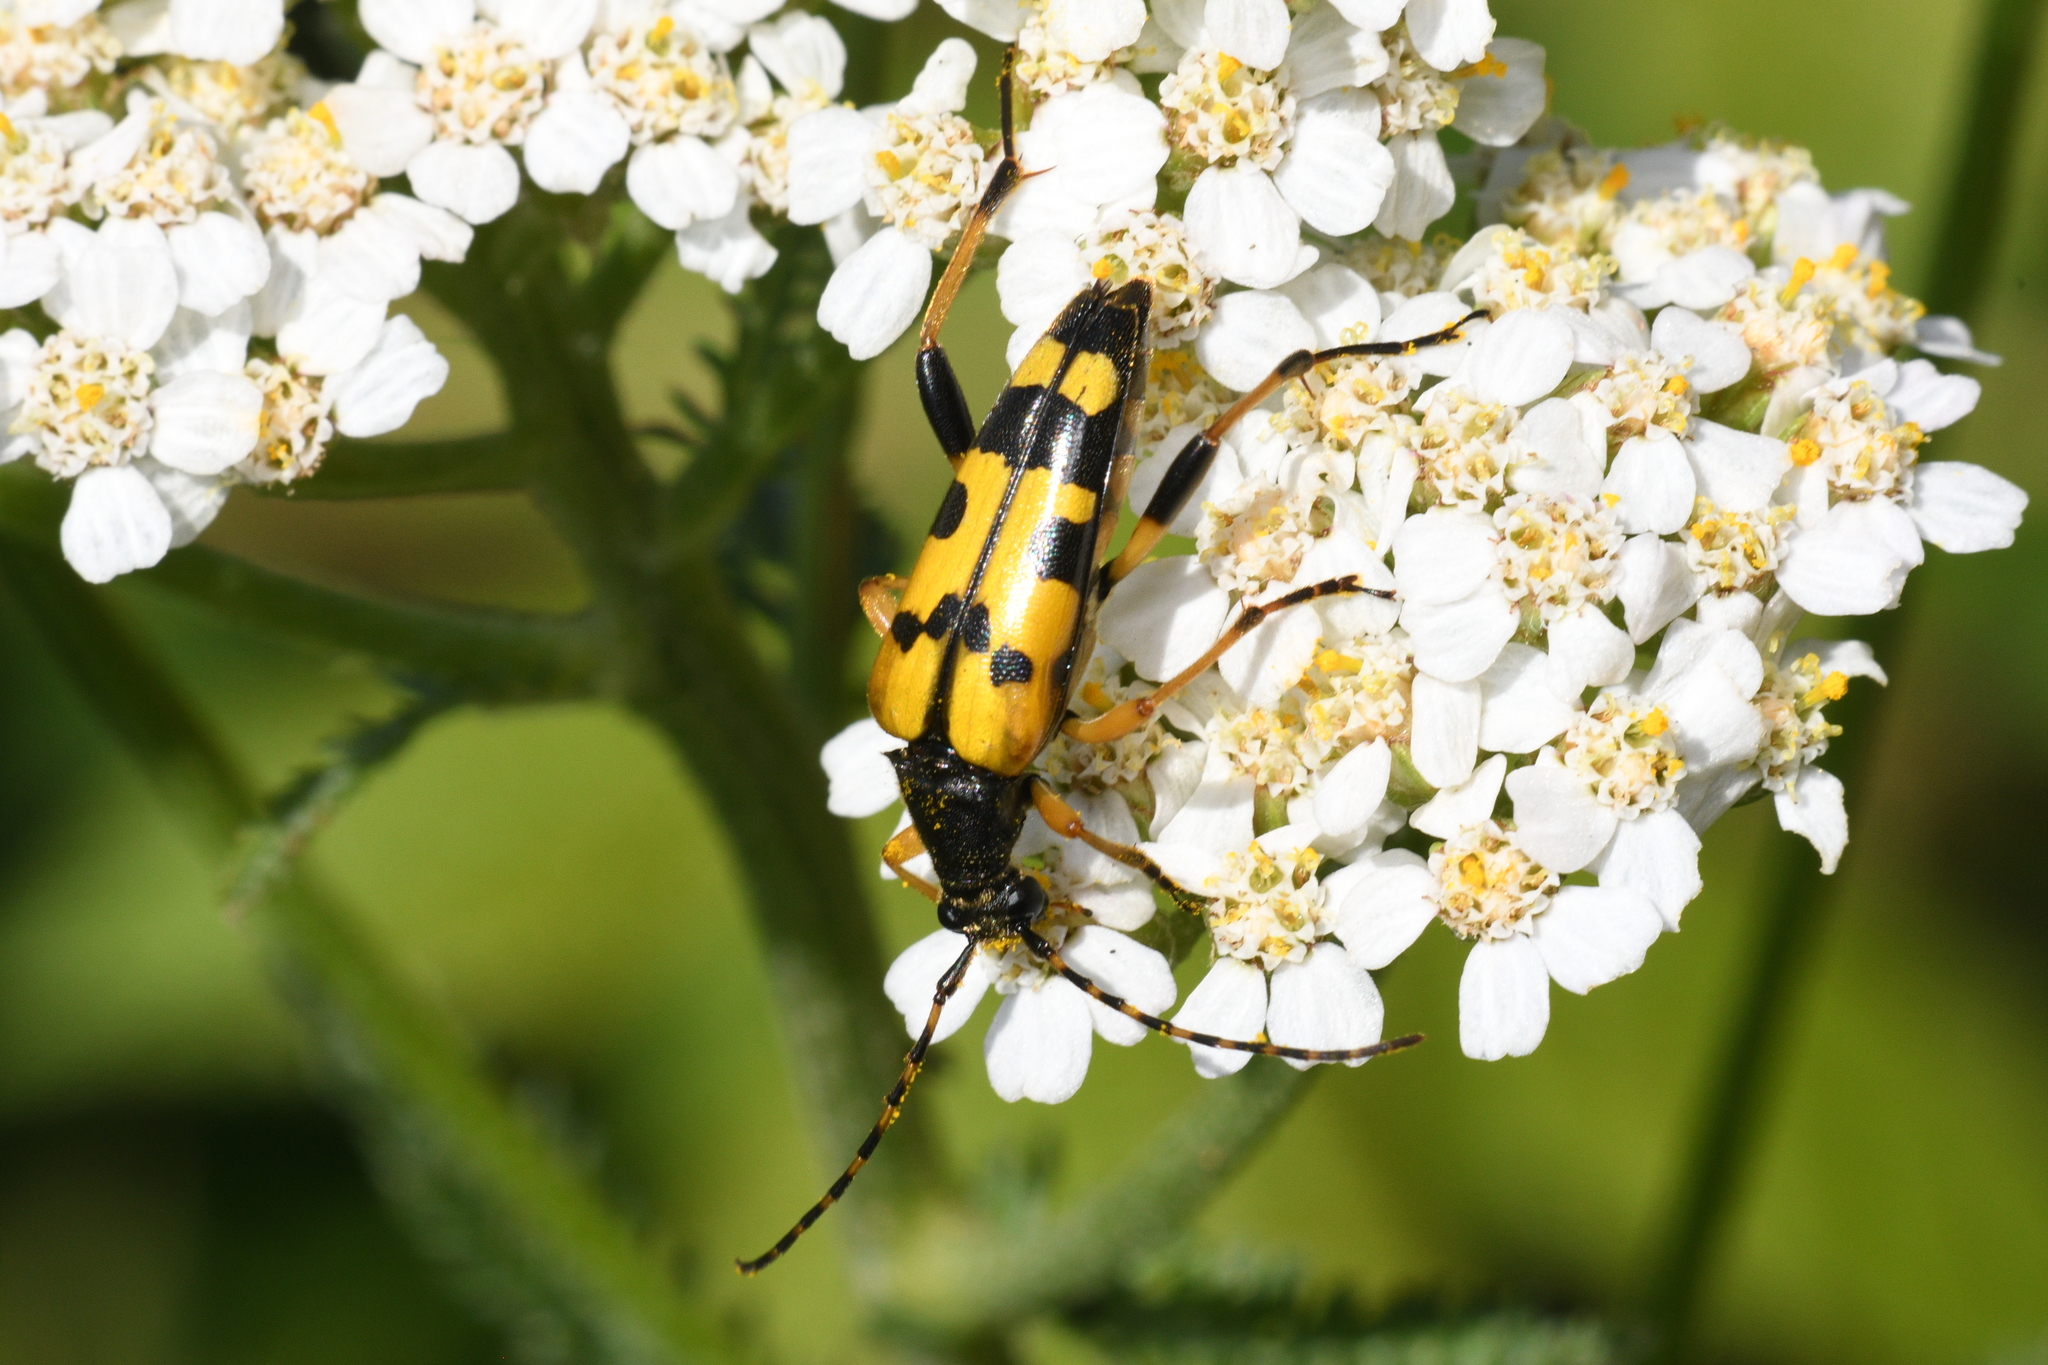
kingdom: Animalia
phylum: Arthropoda
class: Insecta
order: Coleoptera
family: Cerambycidae
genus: Rutpela
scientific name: Rutpela maculata
